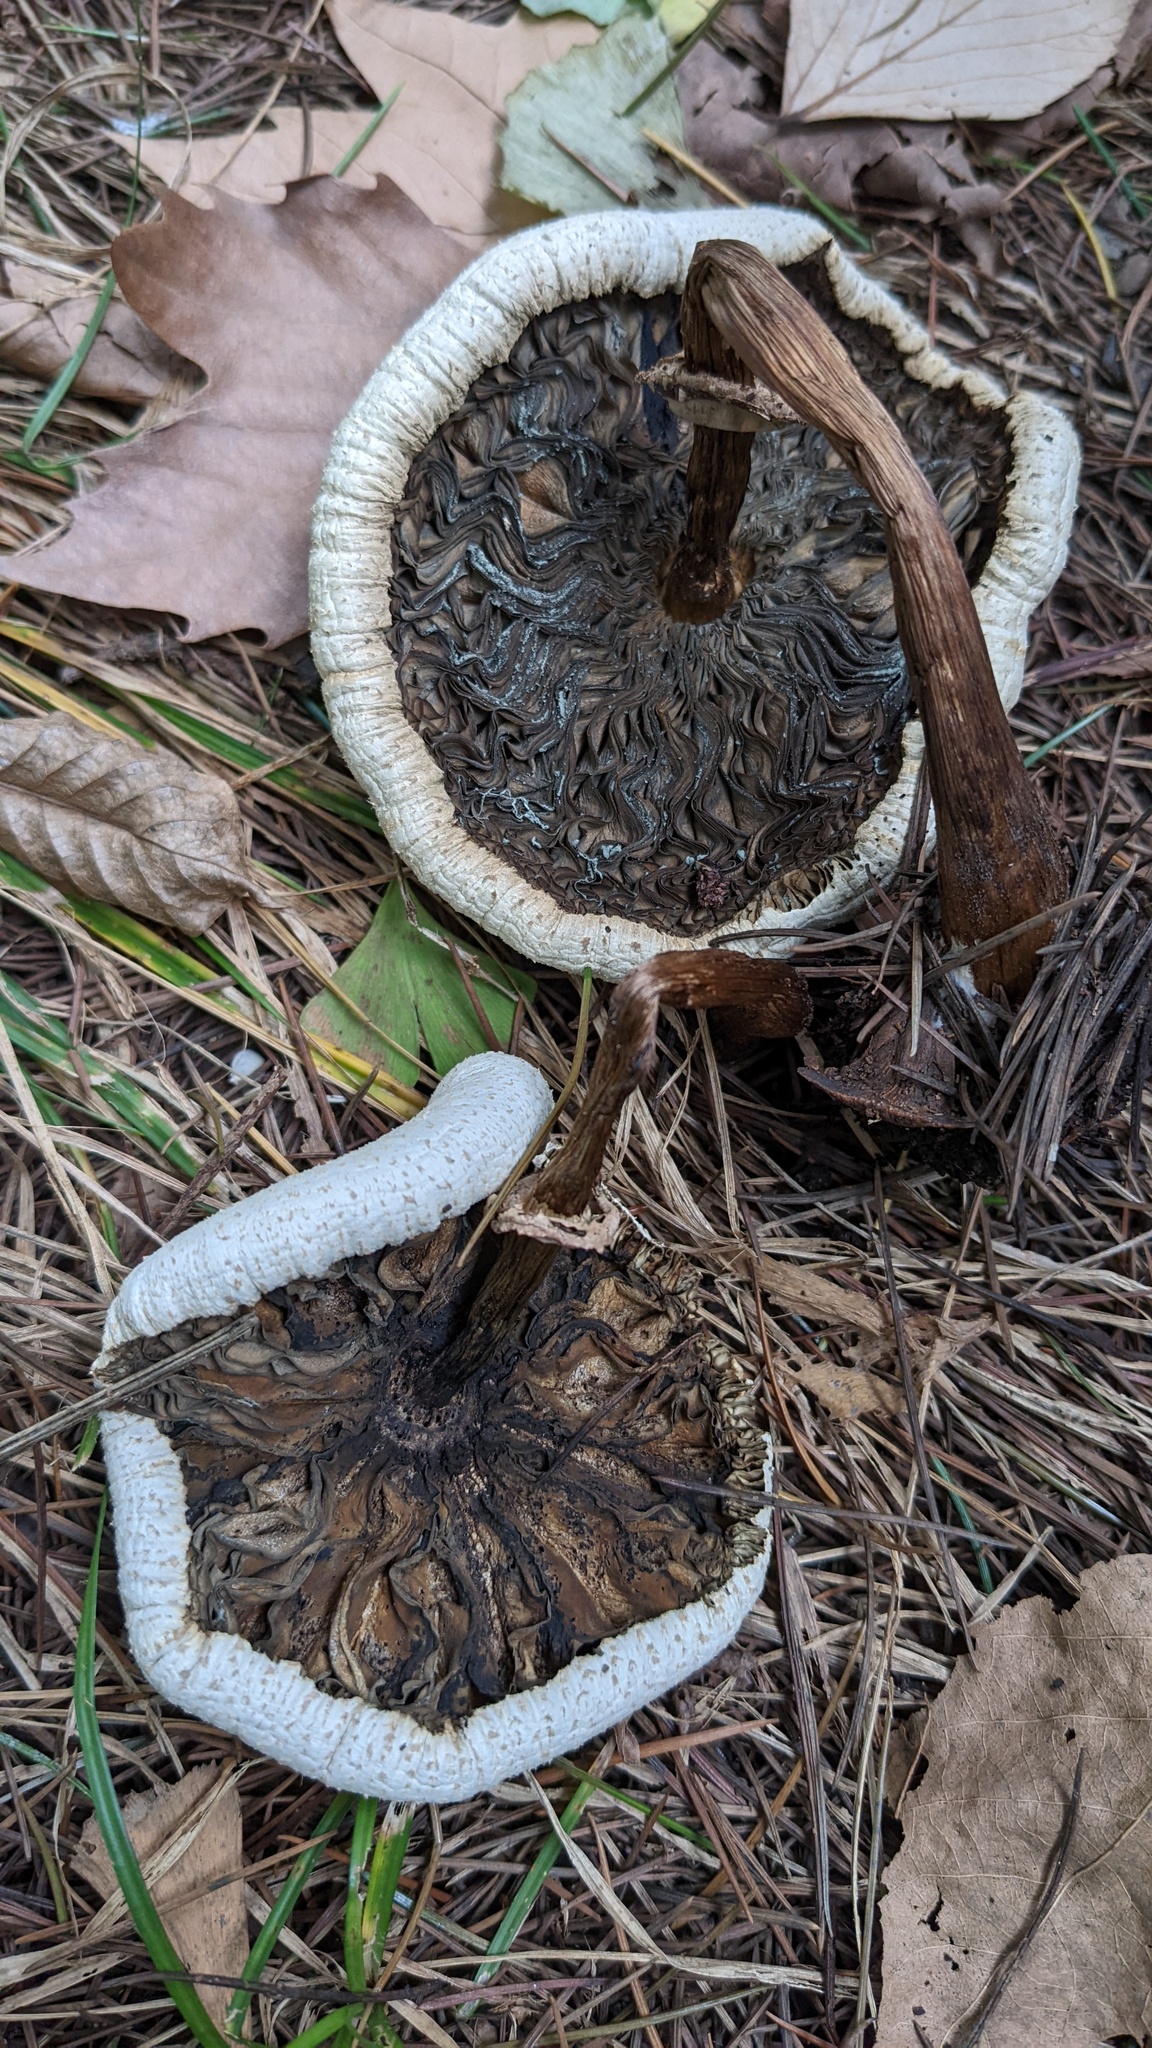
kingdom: Fungi
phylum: Basidiomycota
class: Agaricomycetes
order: Agaricales
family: Agaricaceae
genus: Chlorophyllum
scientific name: Chlorophyllum molybdites
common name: False parasol
